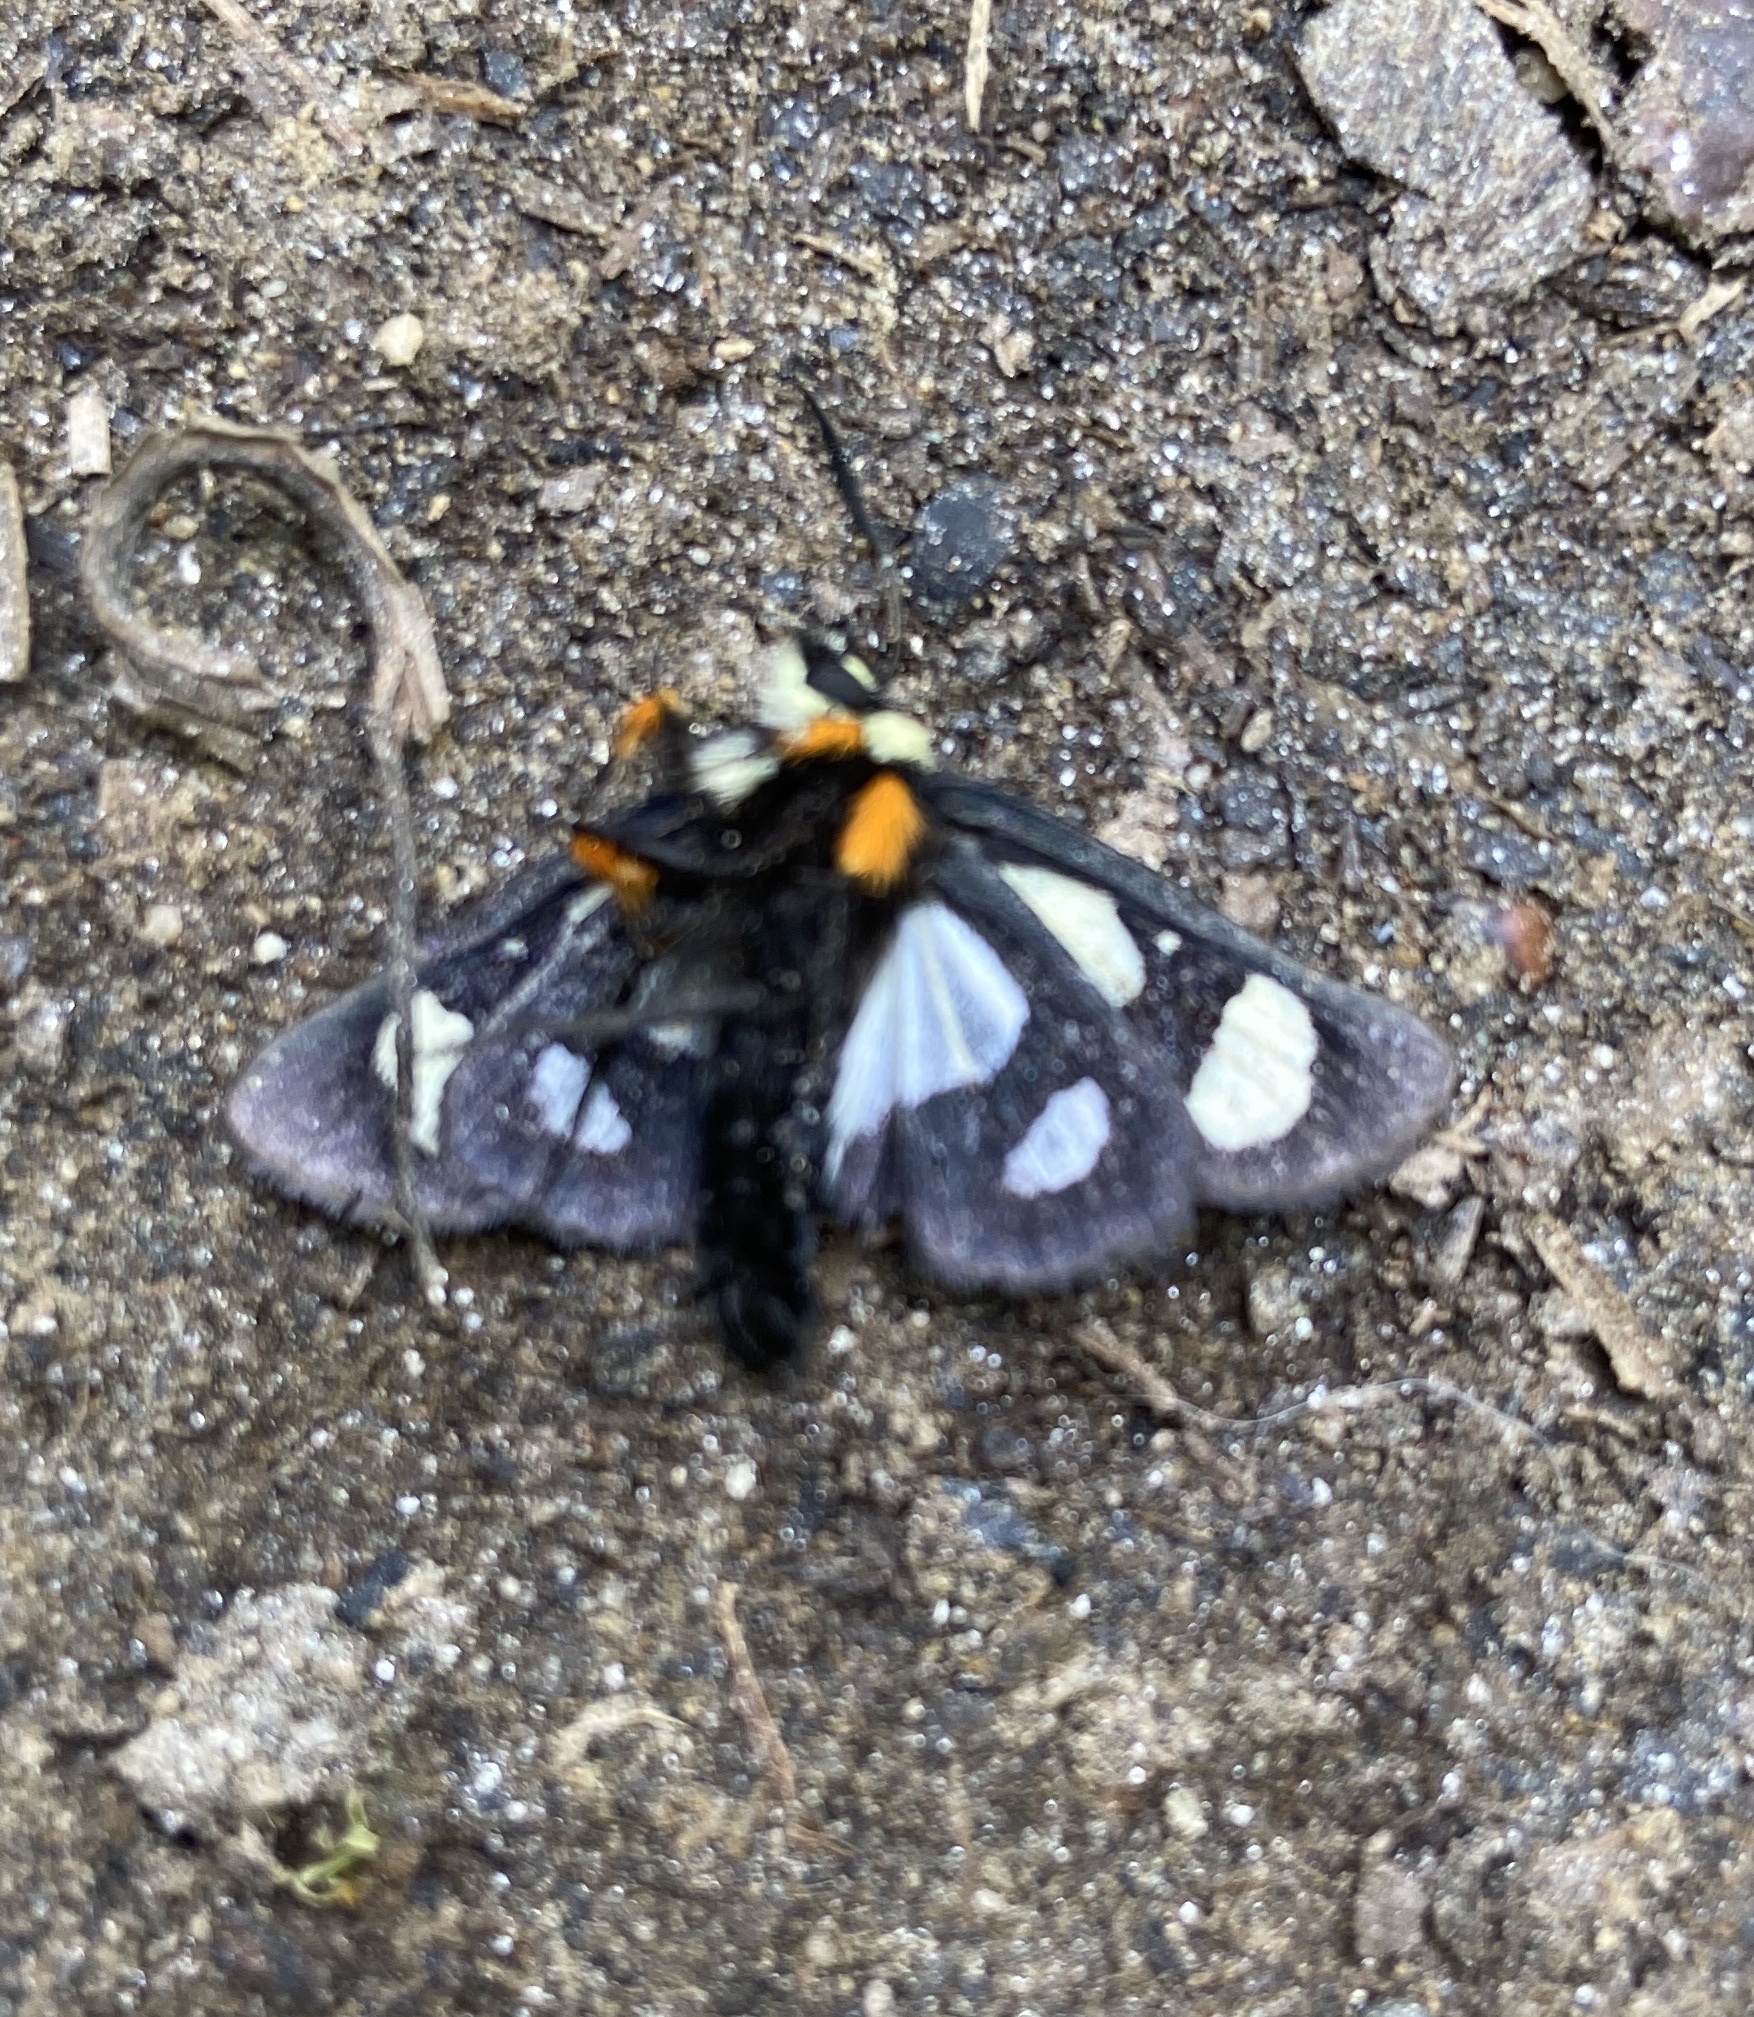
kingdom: Animalia
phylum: Arthropoda
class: Insecta
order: Lepidoptera
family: Noctuidae
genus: Alypia
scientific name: Alypia octomaculata
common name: Eight-spotted forester
